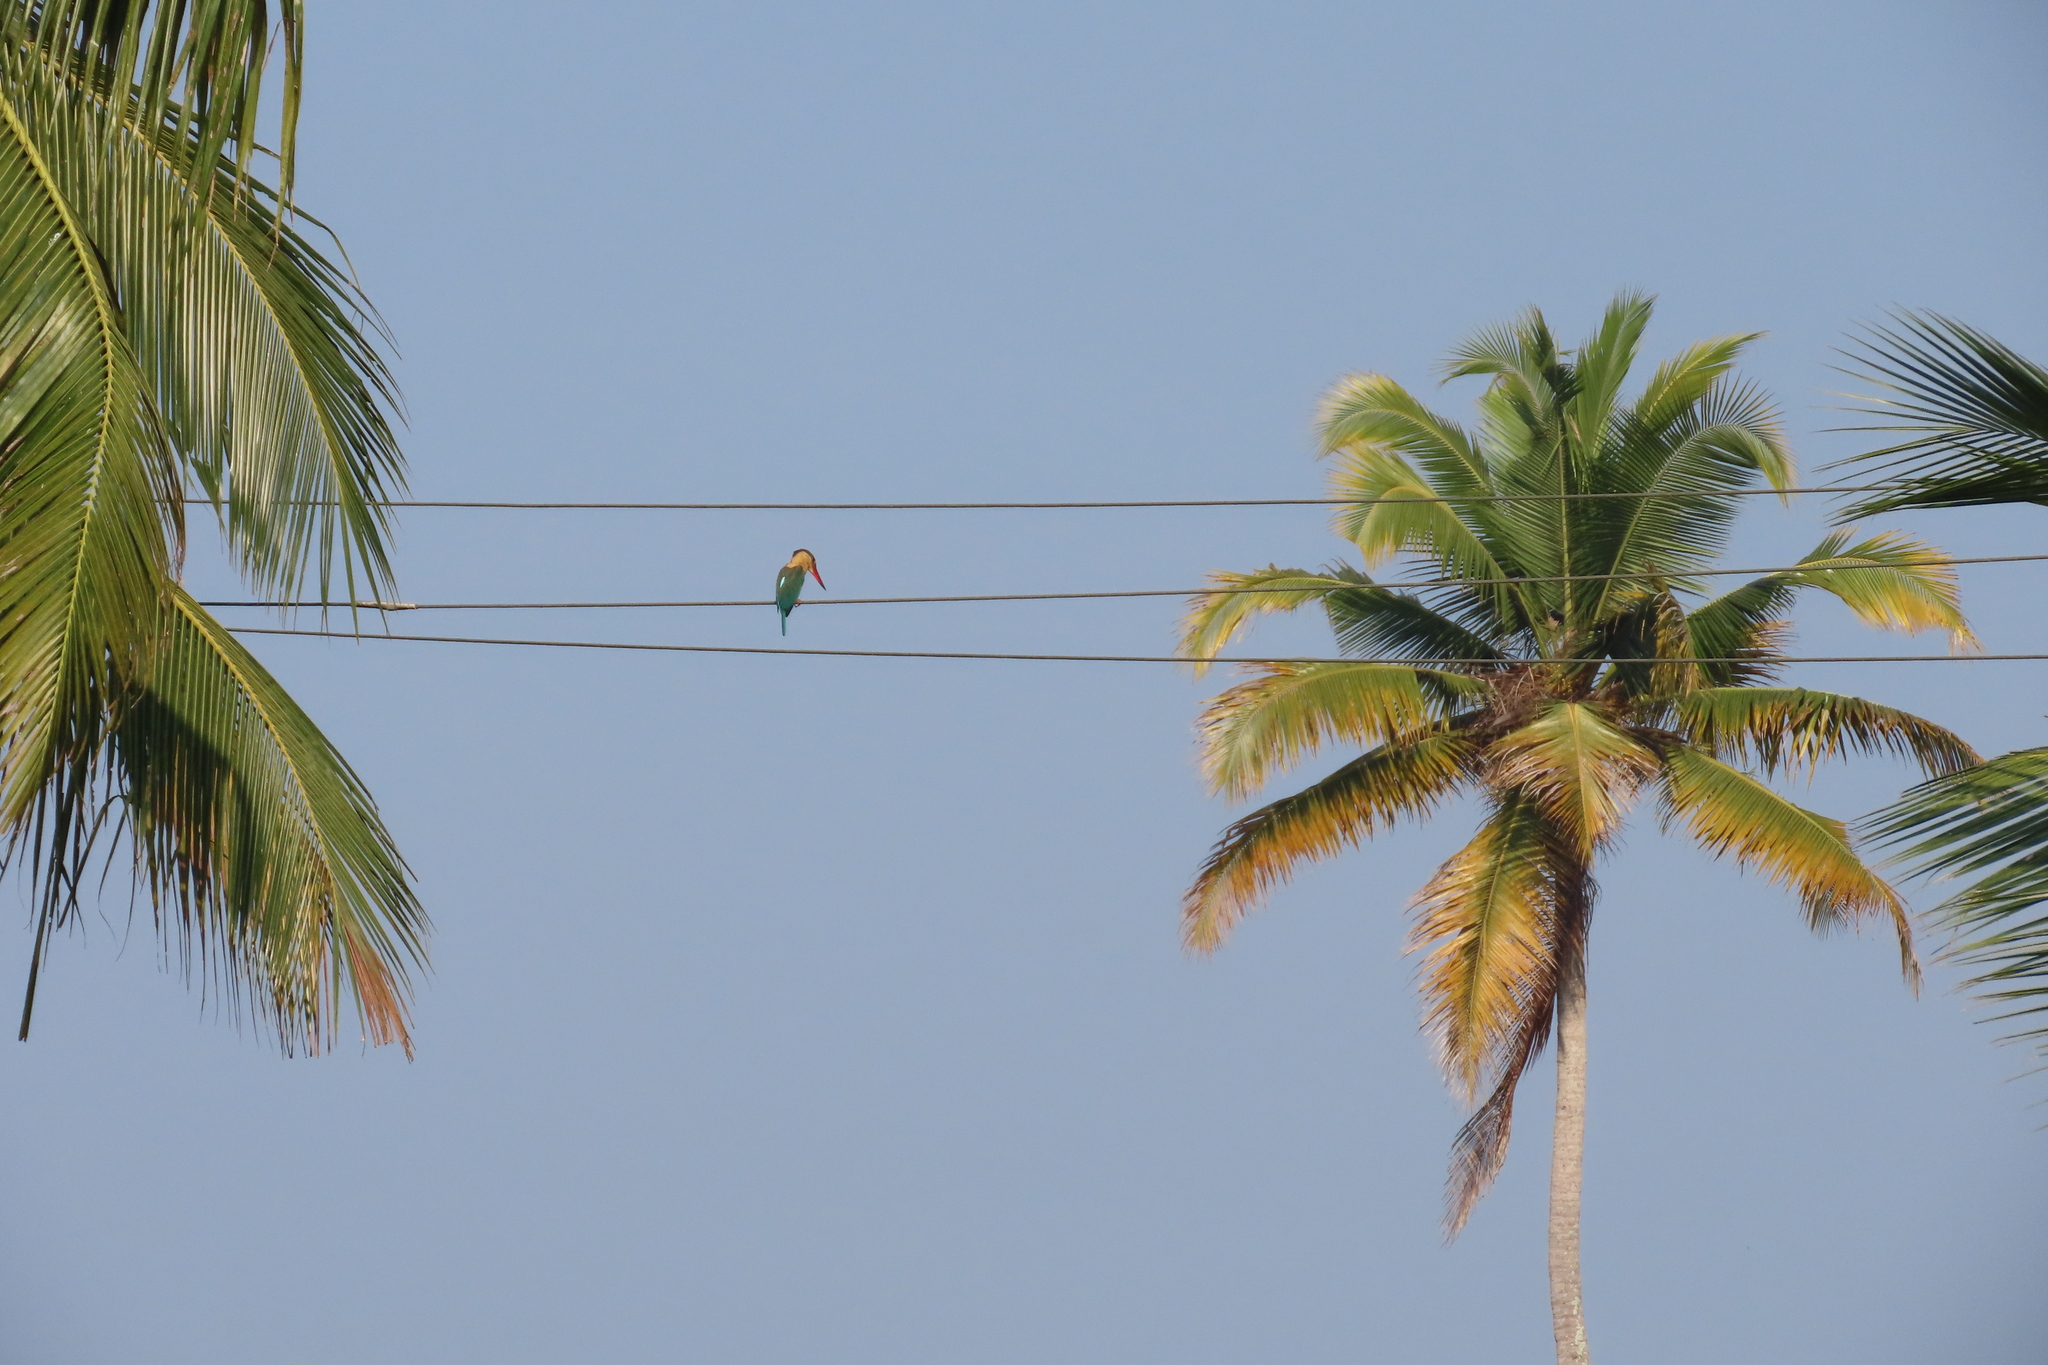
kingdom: Animalia
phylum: Chordata
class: Aves
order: Coraciiformes
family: Alcedinidae
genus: Pelargopsis
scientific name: Pelargopsis capensis
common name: Stork-billed kingfisher
